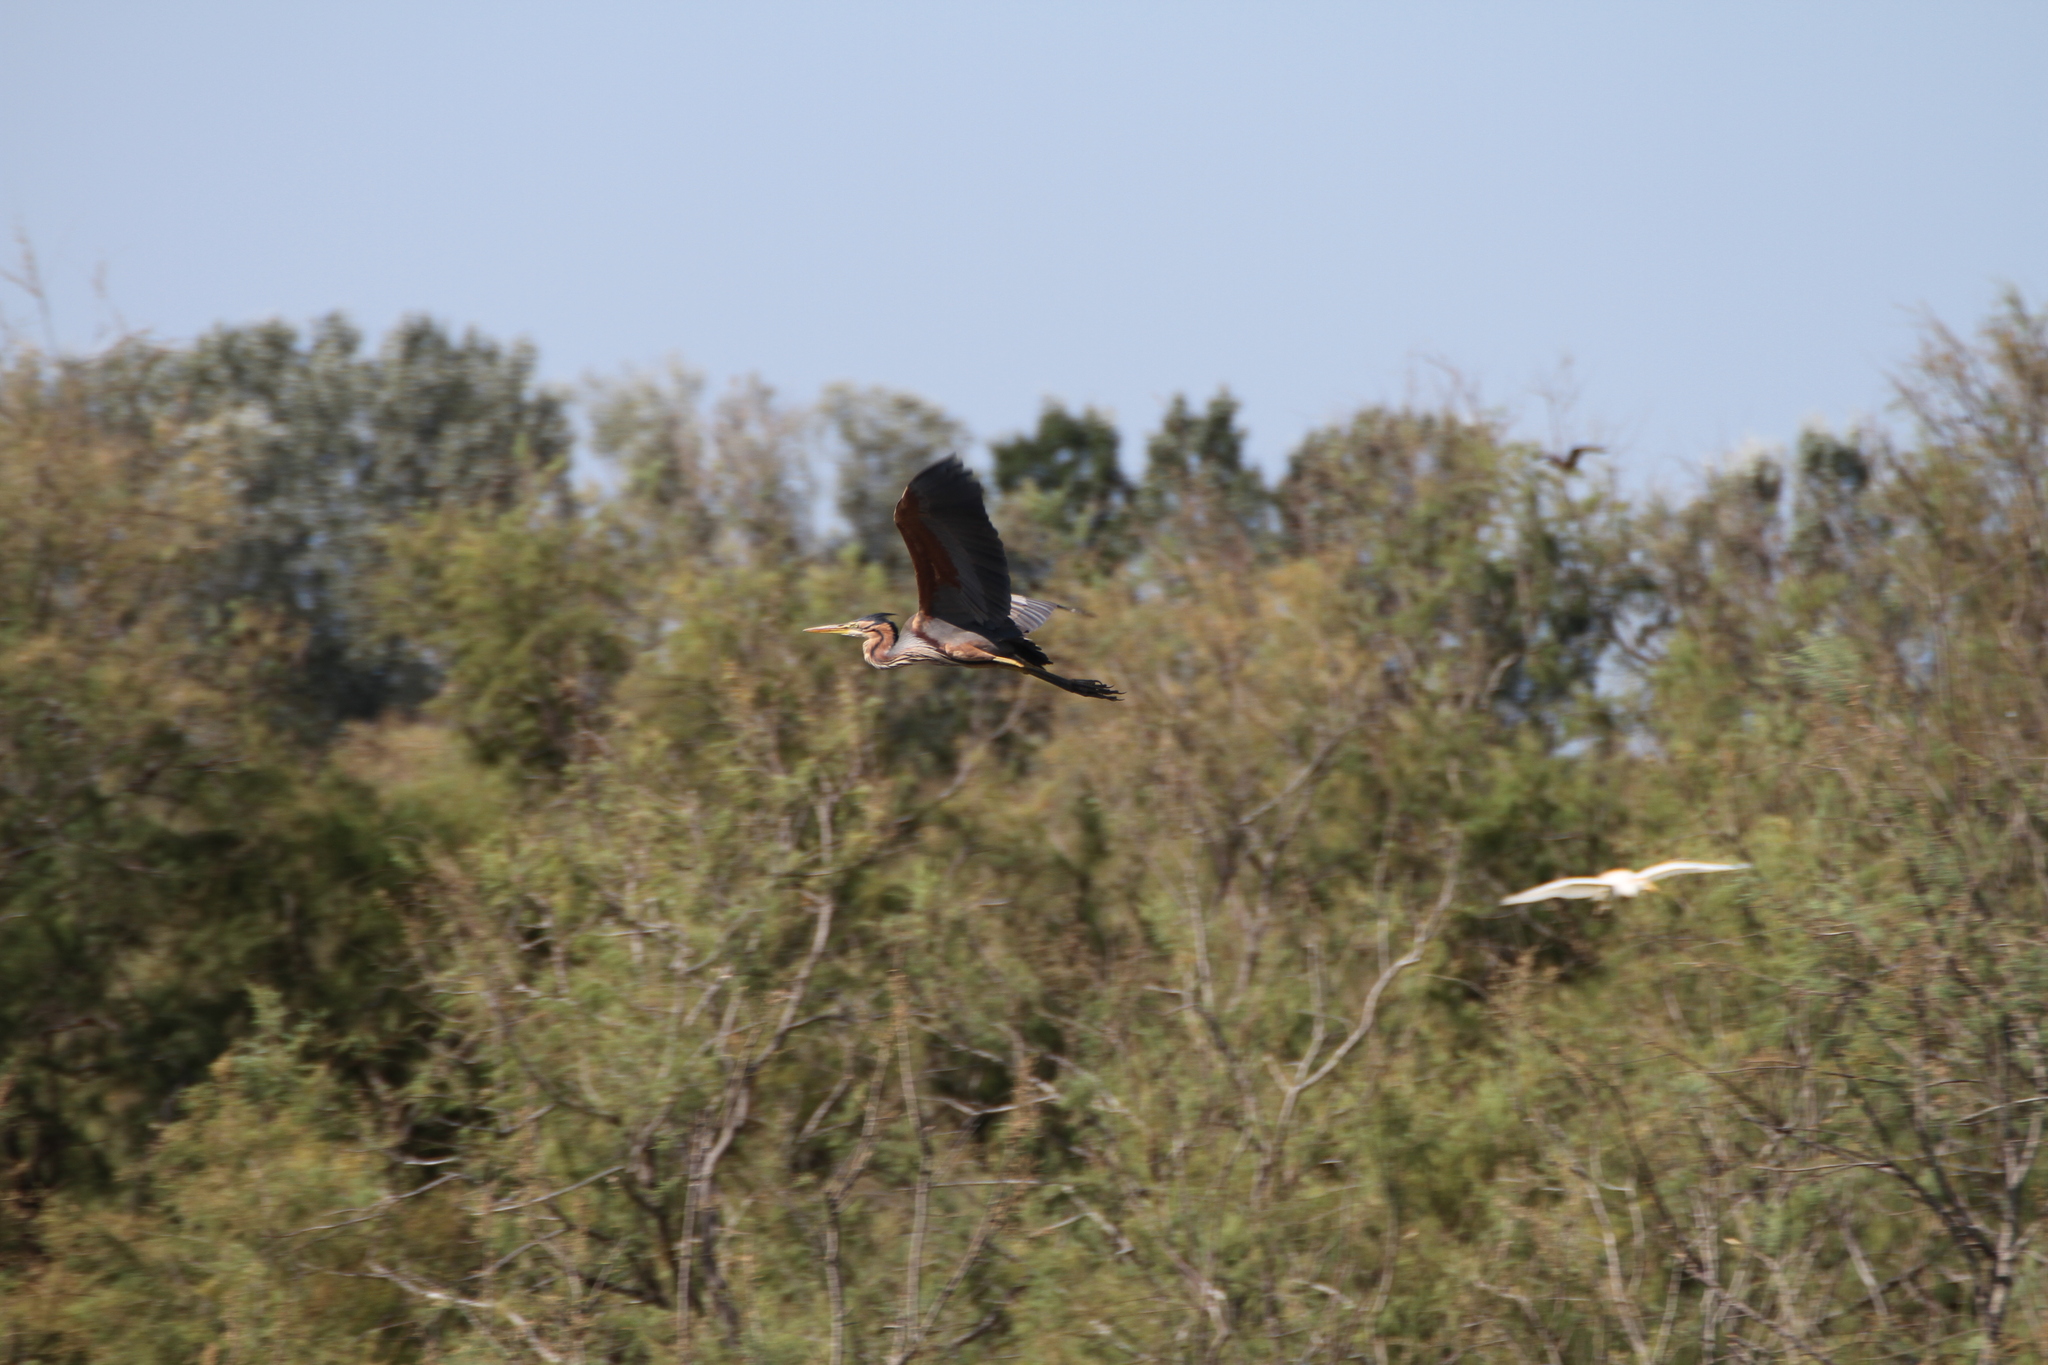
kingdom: Animalia
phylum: Chordata
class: Aves
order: Pelecaniformes
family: Ardeidae
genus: Ardea
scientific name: Ardea purpurea
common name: Purple heron
